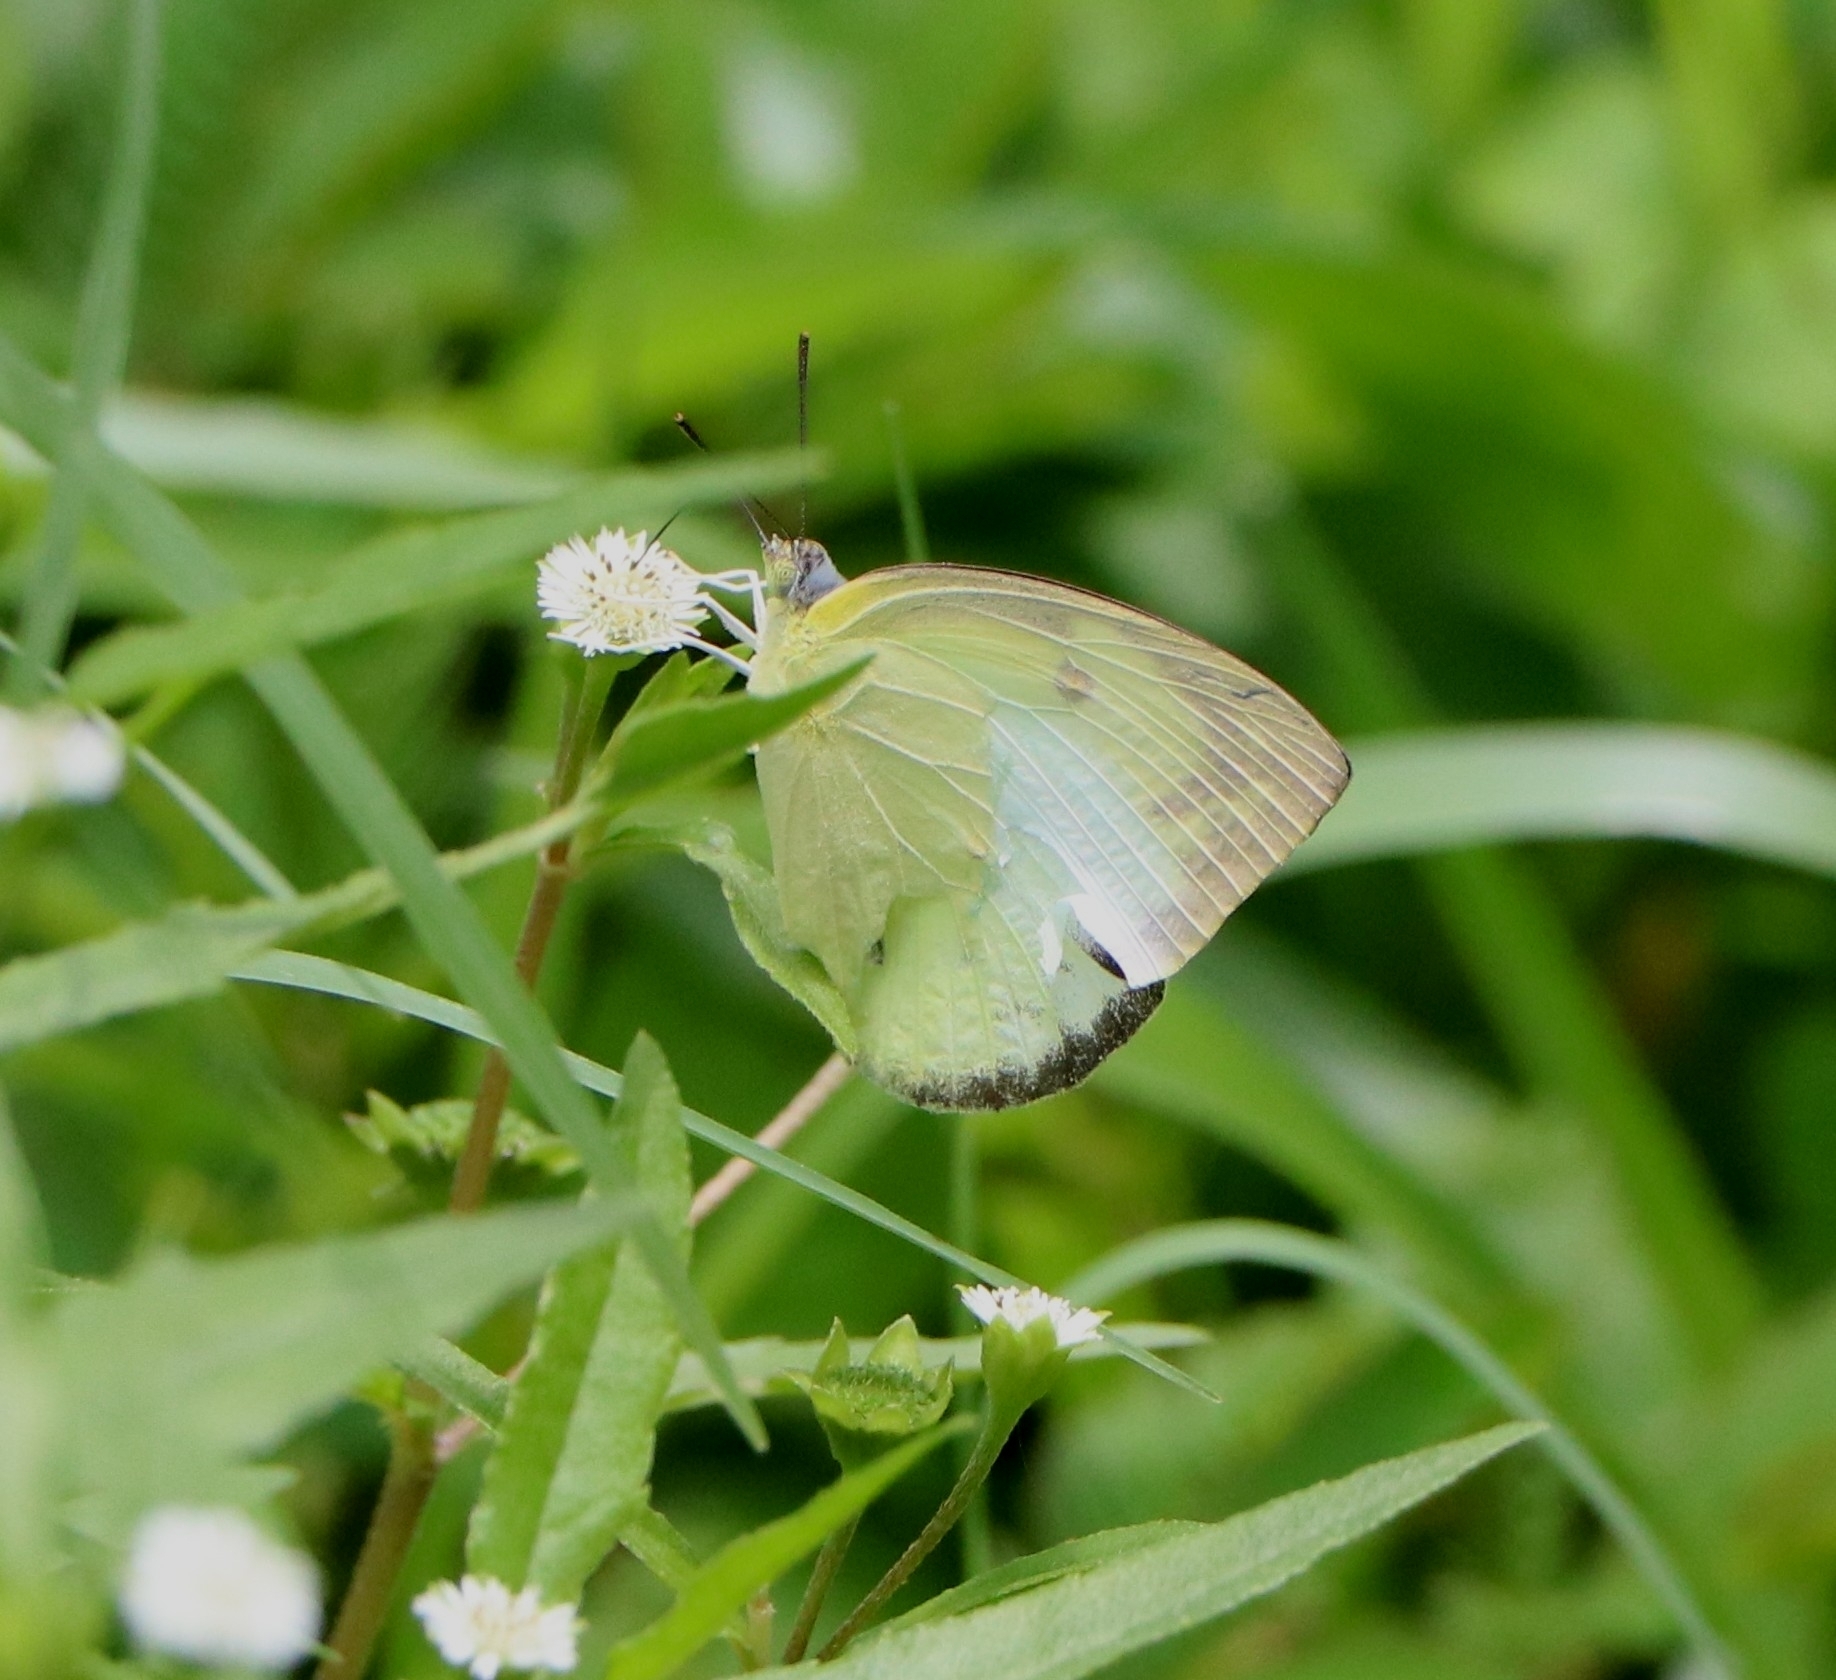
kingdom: Animalia
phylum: Arthropoda
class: Insecta
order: Lepidoptera
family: Pieridae
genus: Catopsilia
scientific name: Catopsilia pomona
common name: Common emigrant
